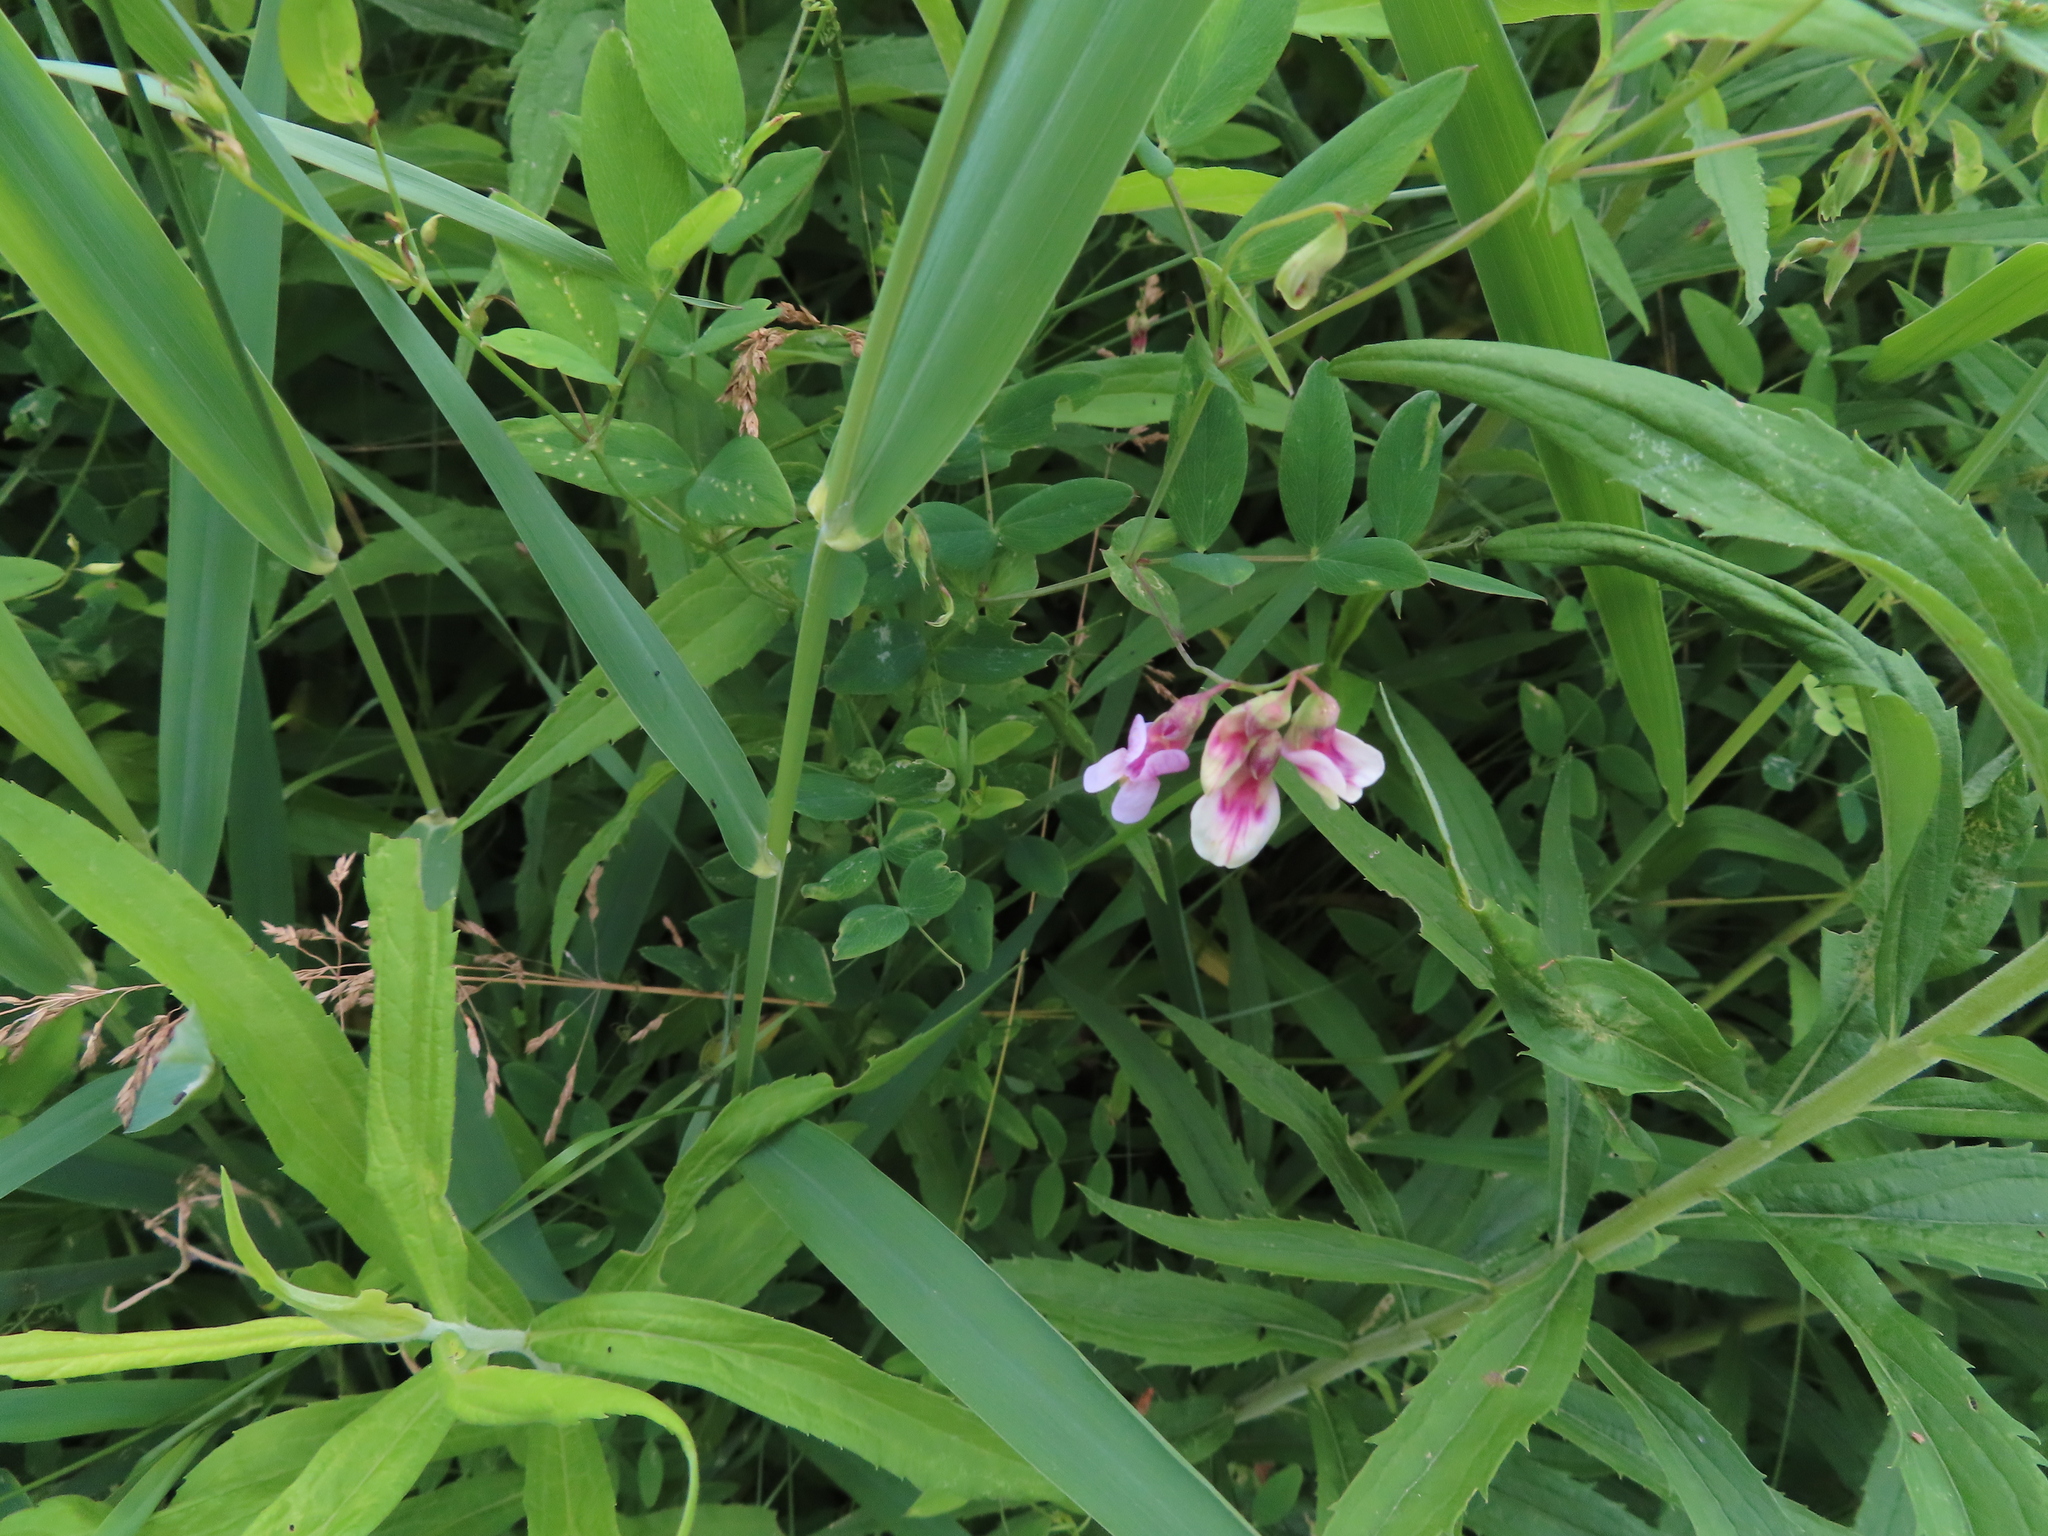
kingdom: Plantae
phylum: Tracheophyta
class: Magnoliopsida
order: Fabales
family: Fabaceae
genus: Lathyrus
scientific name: Lathyrus palustris
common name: Marsh pea
